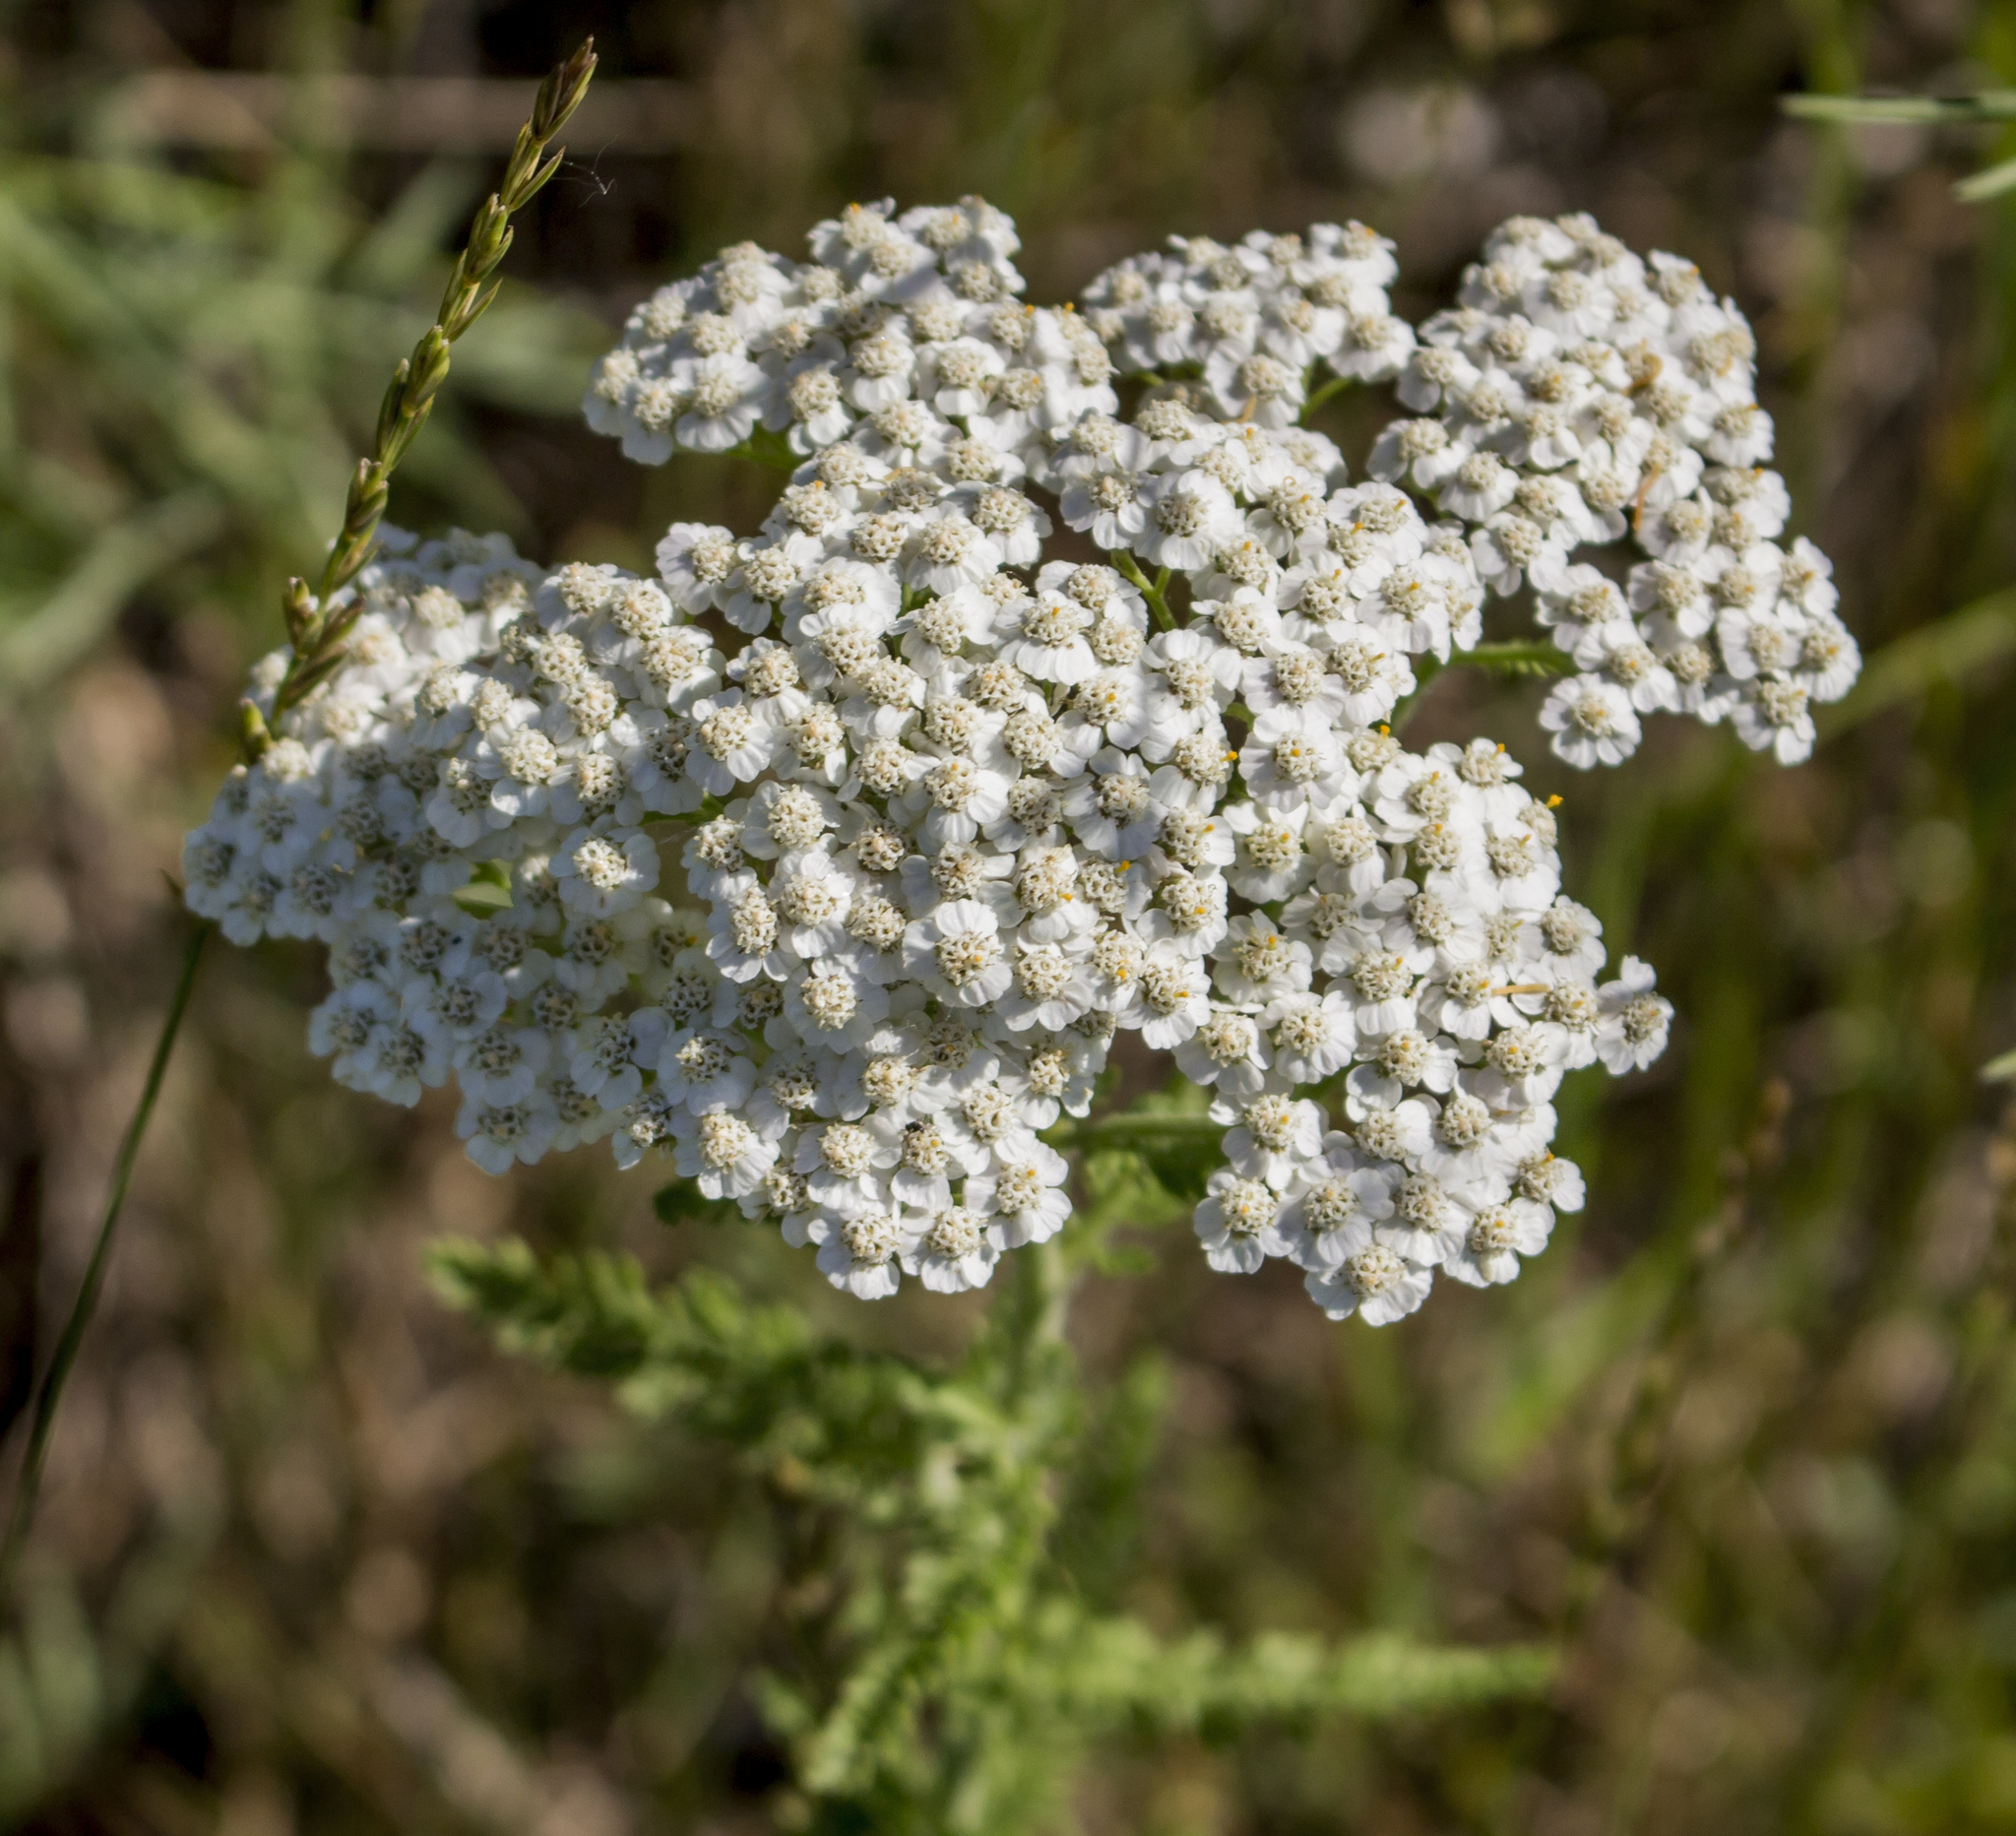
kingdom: Plantae
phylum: Tracheophyta
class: Magnoliopsida
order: Asterales
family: Asteraceae
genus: Achillea
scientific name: Achillea millefolium
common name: Yarrow
